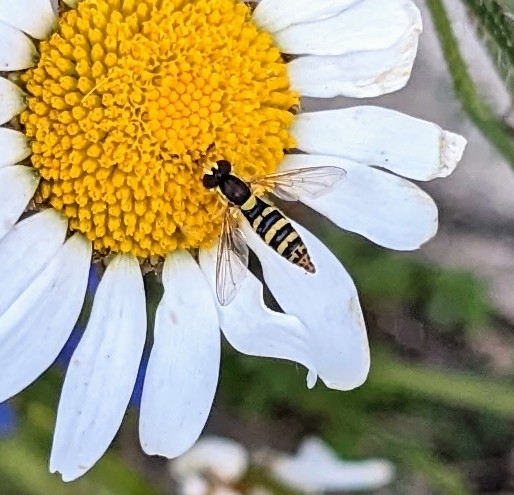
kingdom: Animalia
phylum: Arthropoda
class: Insecta
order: Diptera
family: Syrphidae
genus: Sphaerophoria
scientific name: Sphaerophoria scripta
